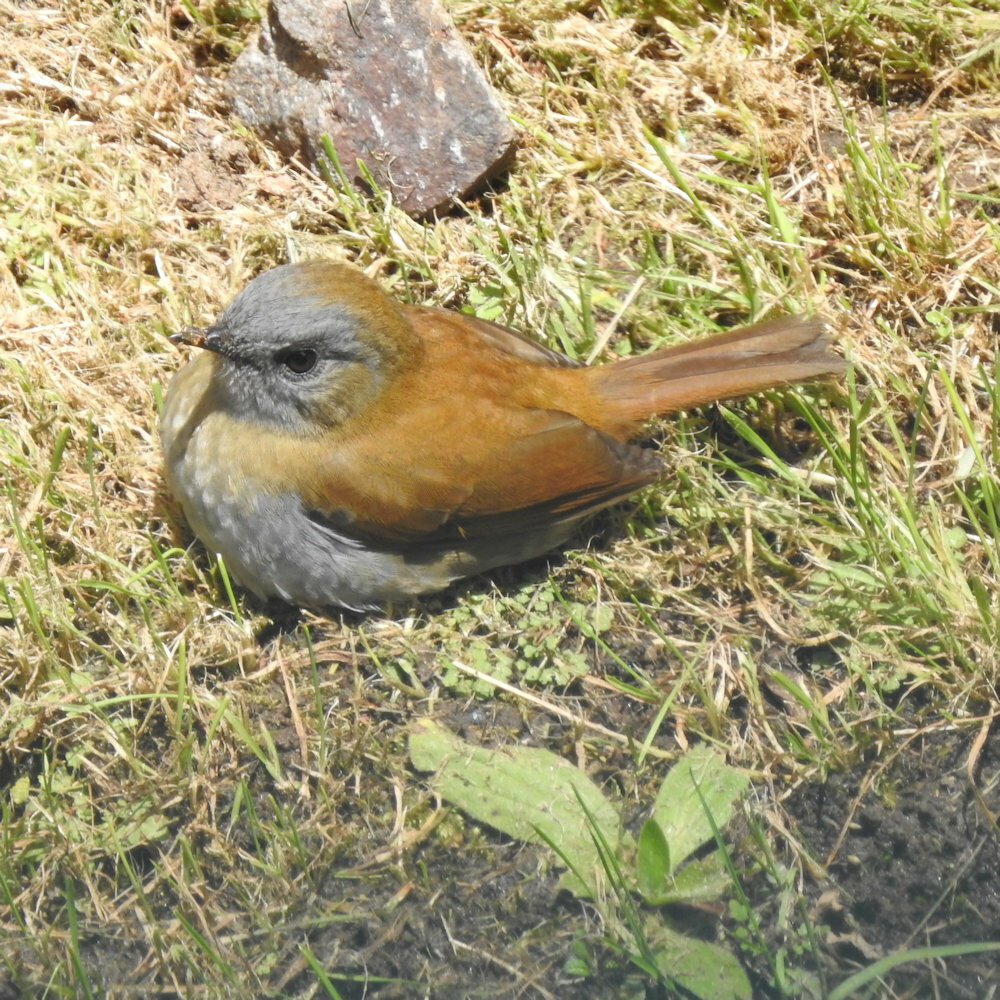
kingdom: Animalia
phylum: Chordata
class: Aves
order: Passeriformes
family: Turdidae
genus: Catharus
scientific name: Catharus gracilirostris
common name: Black-billed nightingale-thrush
